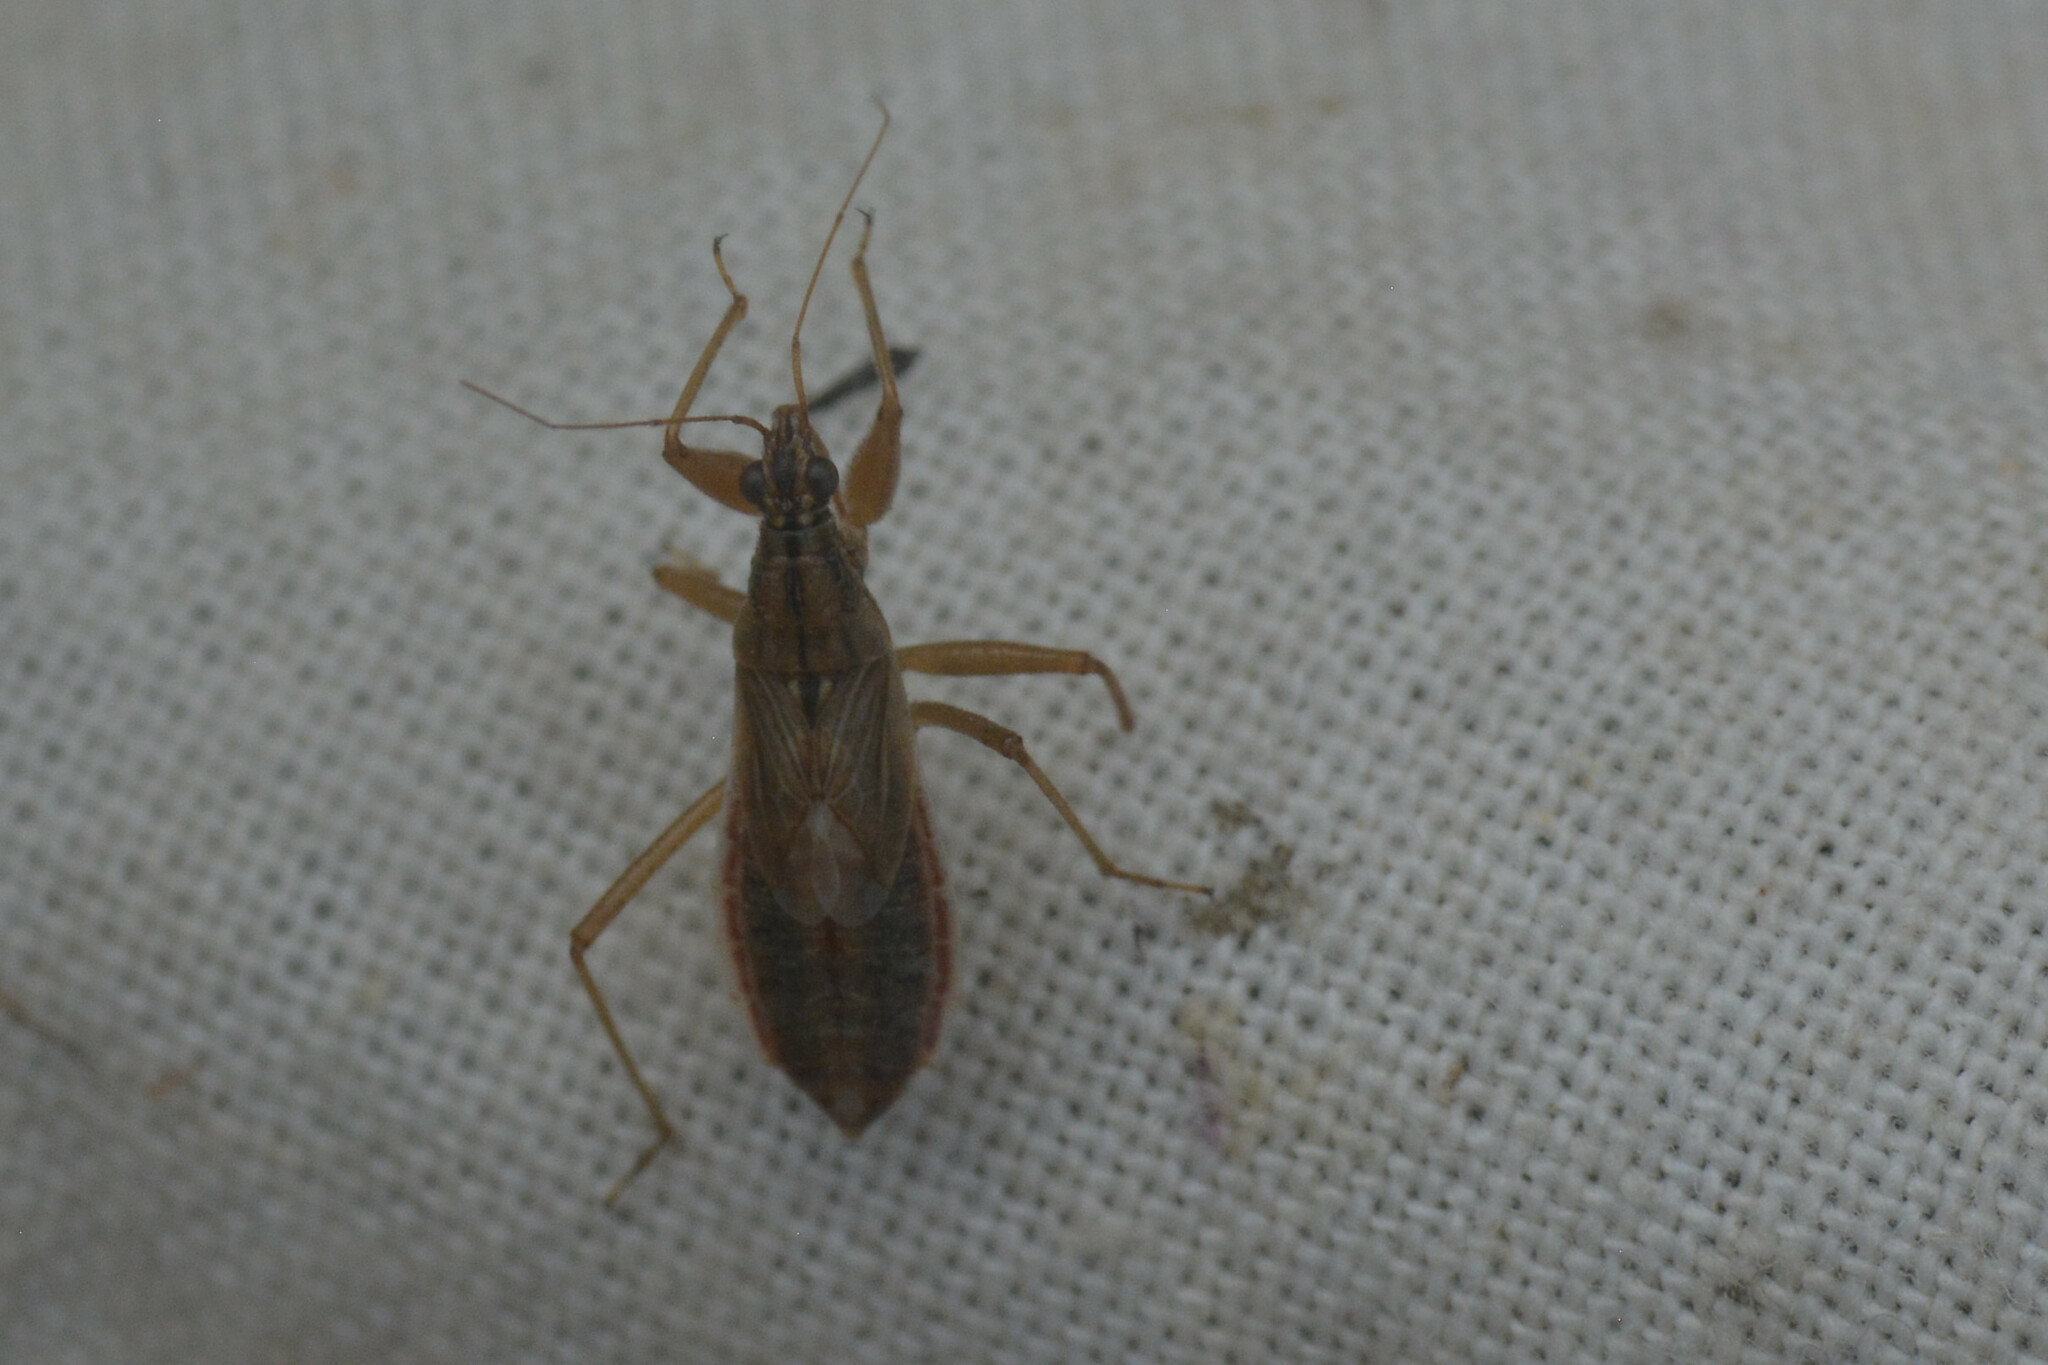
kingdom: Animalia
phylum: Arthropoda
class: Insecta
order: Hemiptera
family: Nabidae
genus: Nabis
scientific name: Nabis flavomarginatus
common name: Broad damselbug
